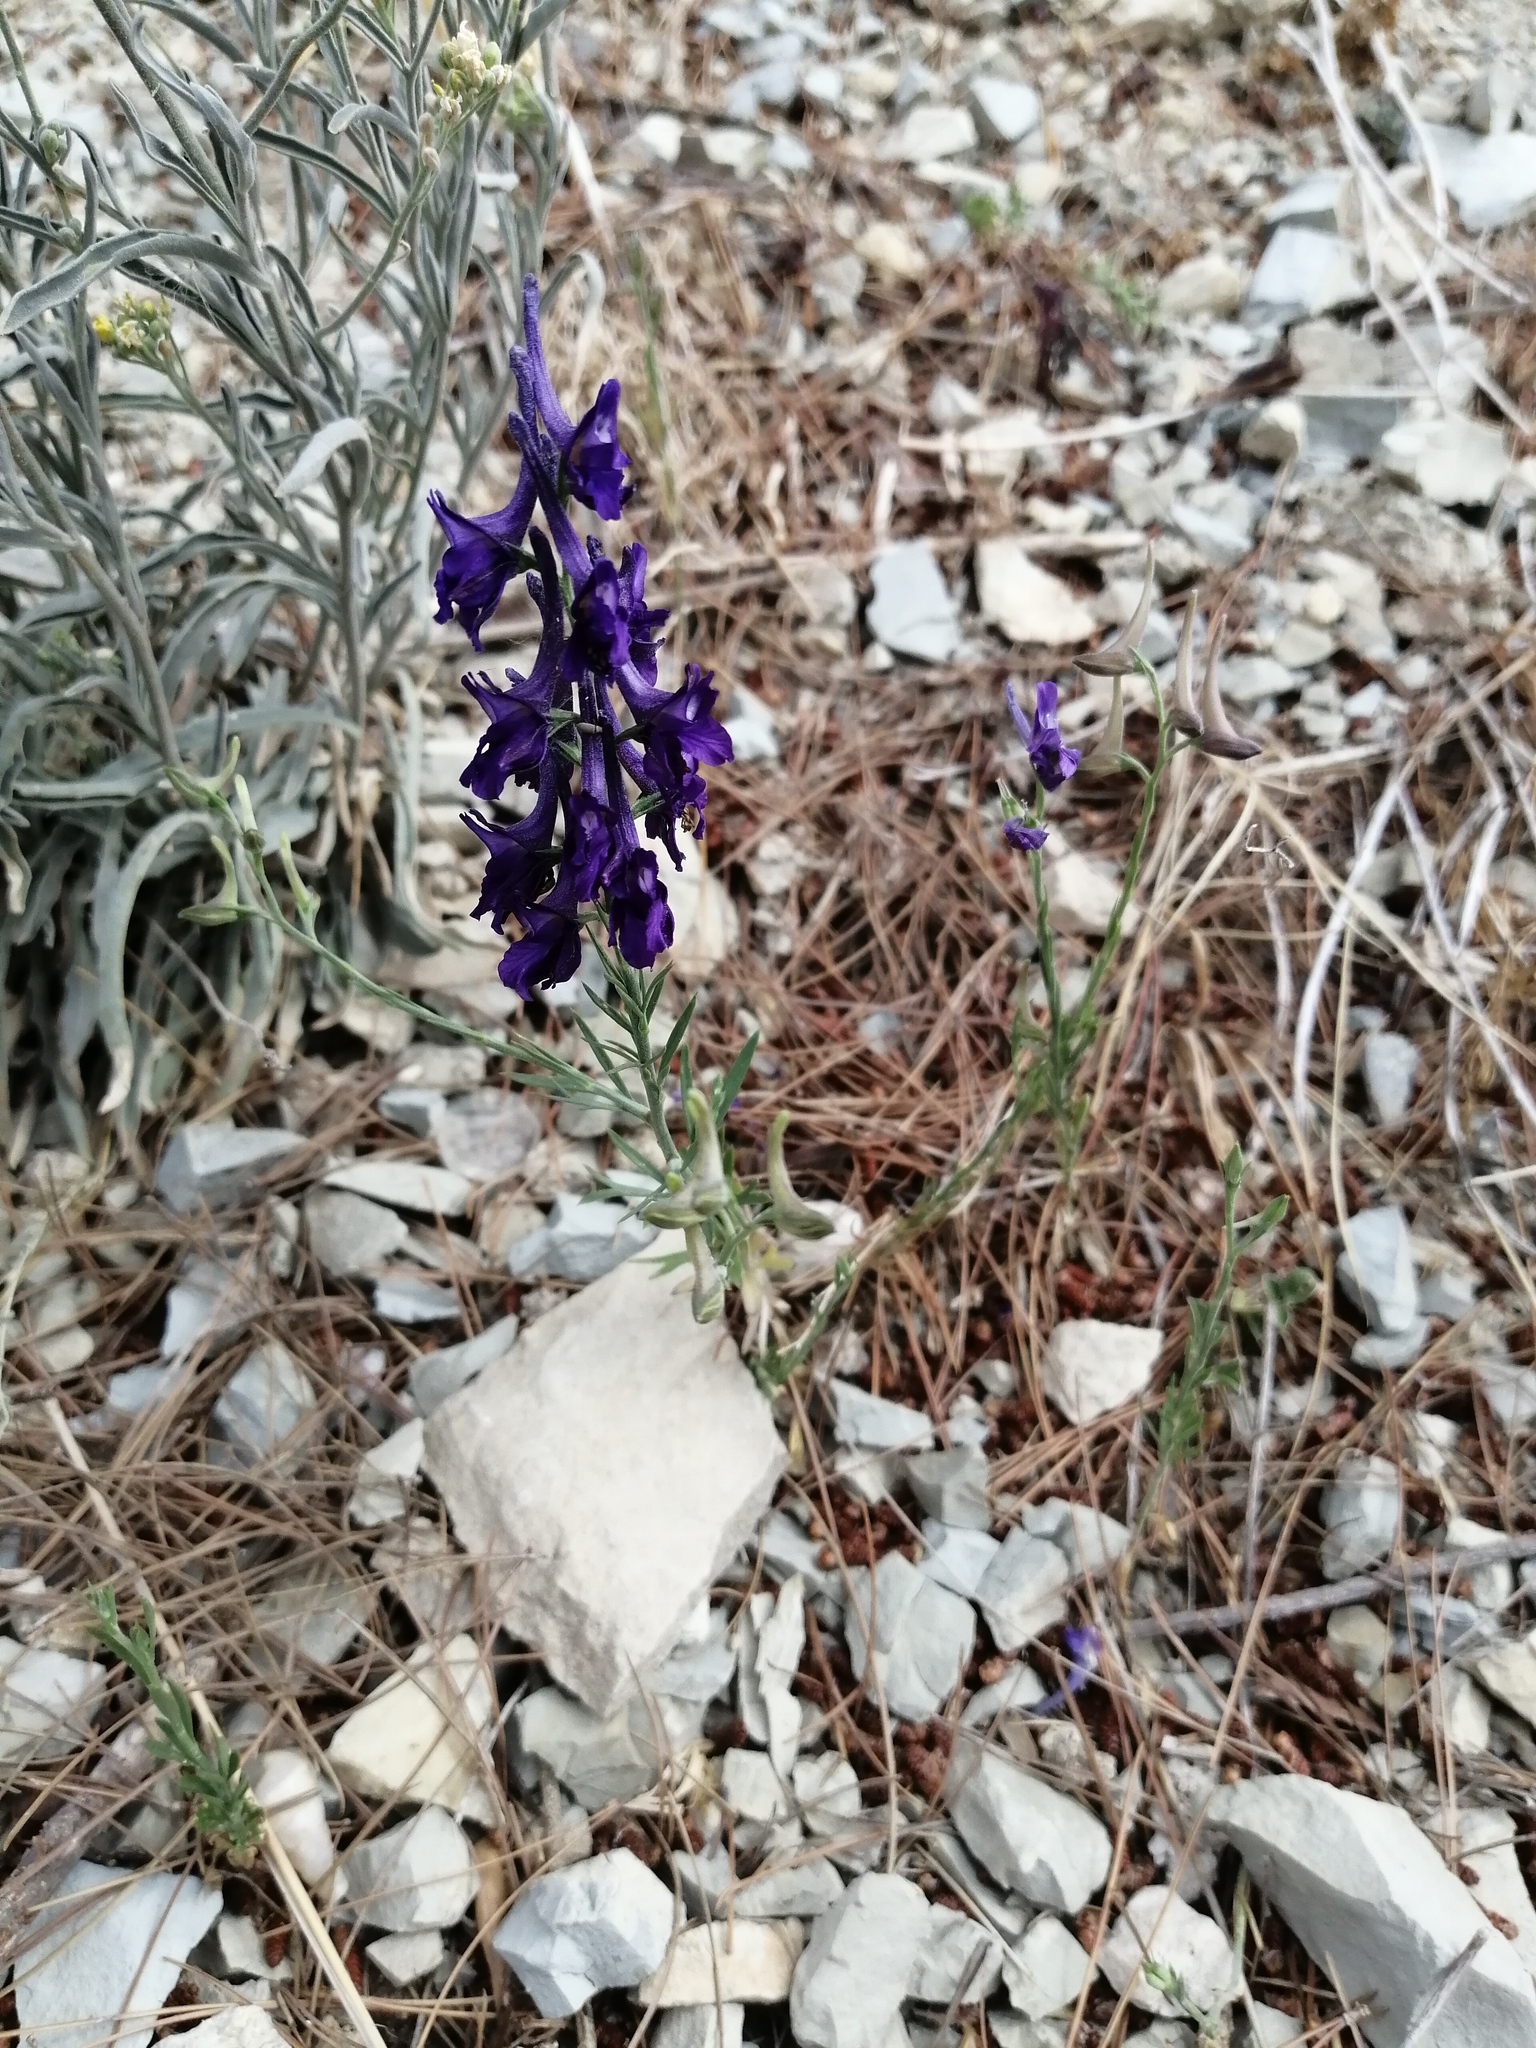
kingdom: Plantae
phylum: Tracheophyta
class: Magnoliopsida
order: Ranunculales
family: Ranunculaceae
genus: Delphinium
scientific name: Delphinium peregrinum
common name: Violet larkspur
